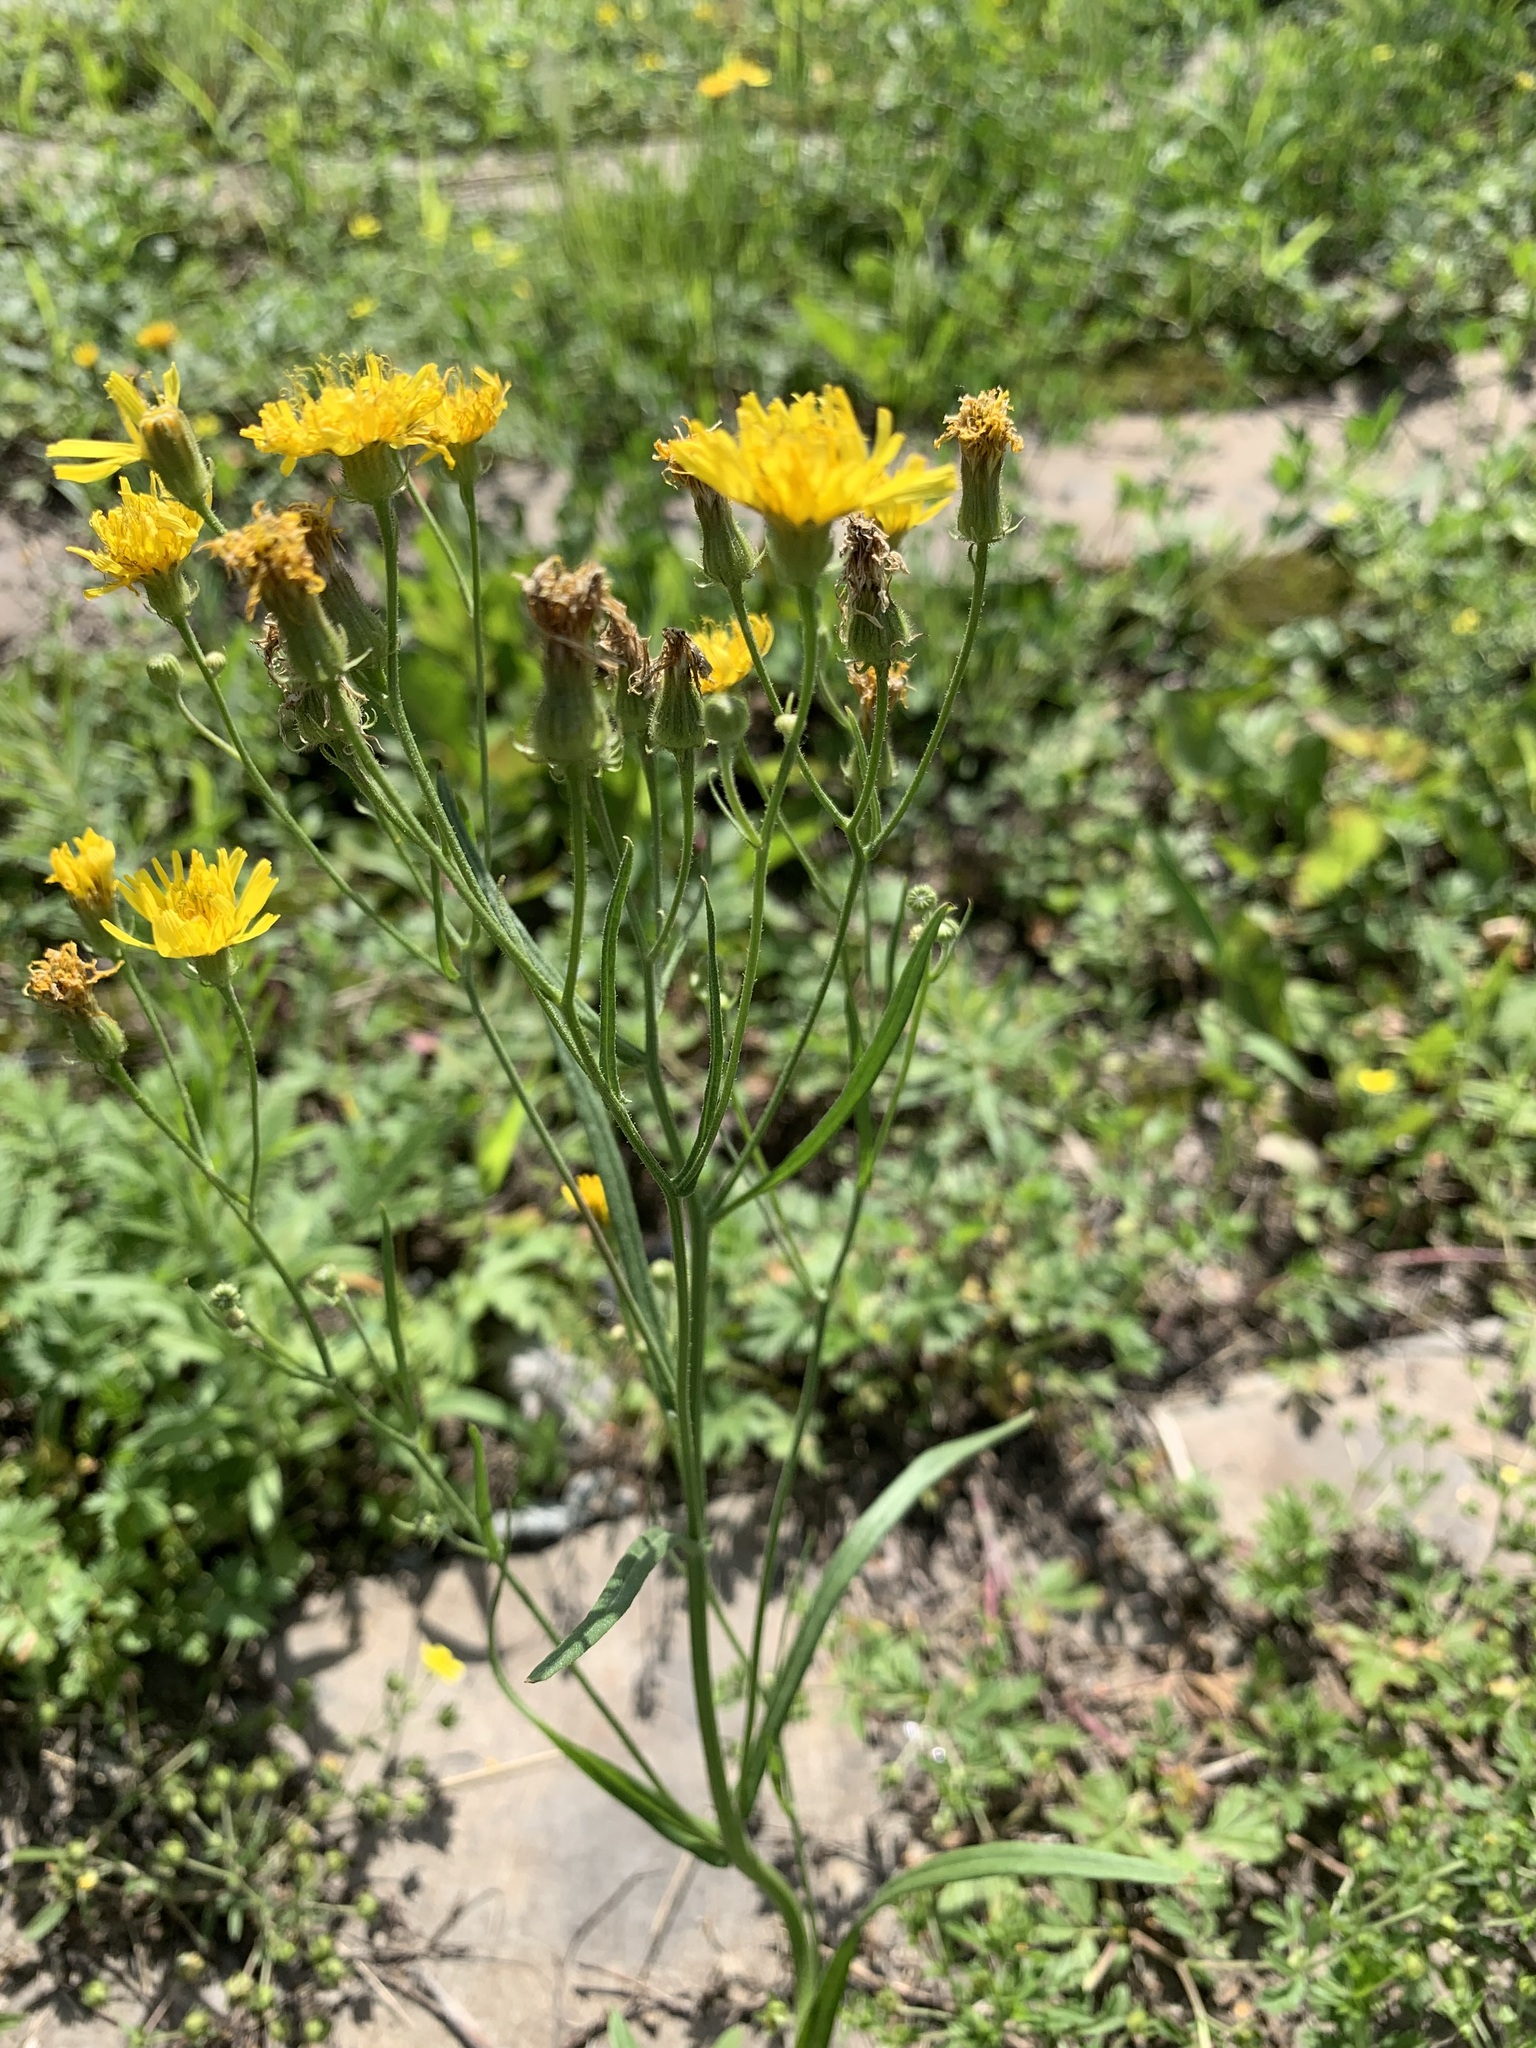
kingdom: Plantae
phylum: Tracheophyta
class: Magnoliopsida
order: Asterales
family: Asteraceae
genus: Crepis
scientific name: Crepis tectorum
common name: Narrow-leaved hawk's-beard
